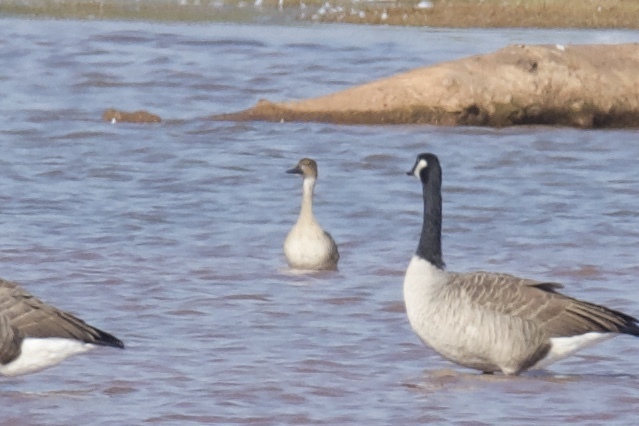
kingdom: Animalia
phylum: Chordata
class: Aves
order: Anseriformes
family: Anatidae
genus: Anas
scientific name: Anas acuta
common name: Northern pintail
